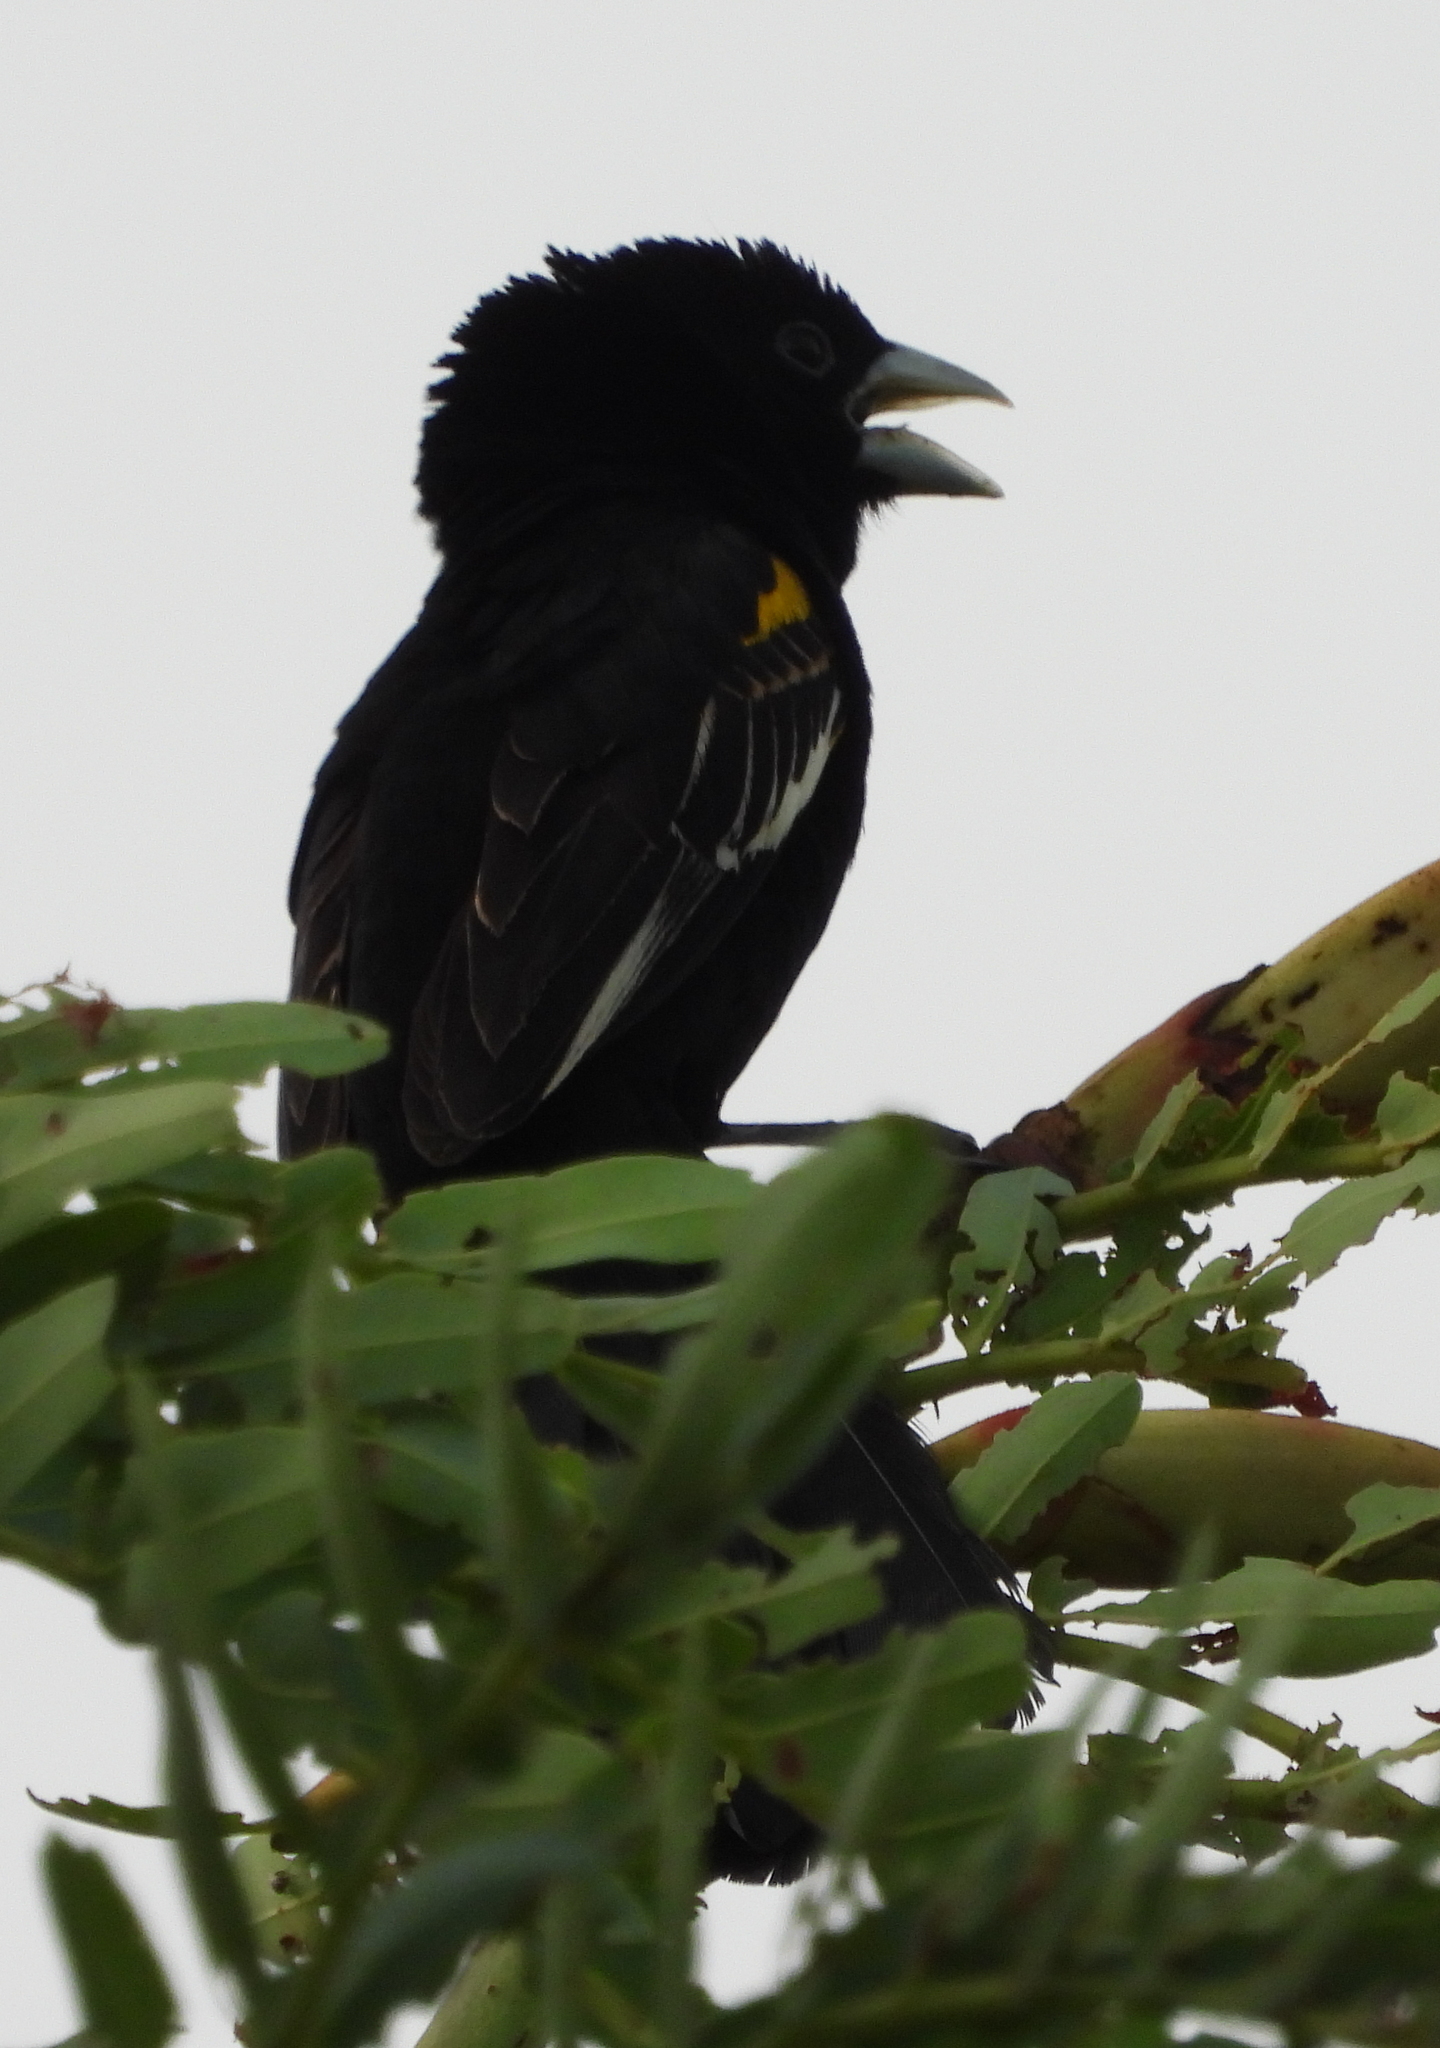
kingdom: Animalia
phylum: Chordata
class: Aves
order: Passeriformes
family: Ploceidae
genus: Euplectes
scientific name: Euplectes albonotatus
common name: White-winged widowbird
